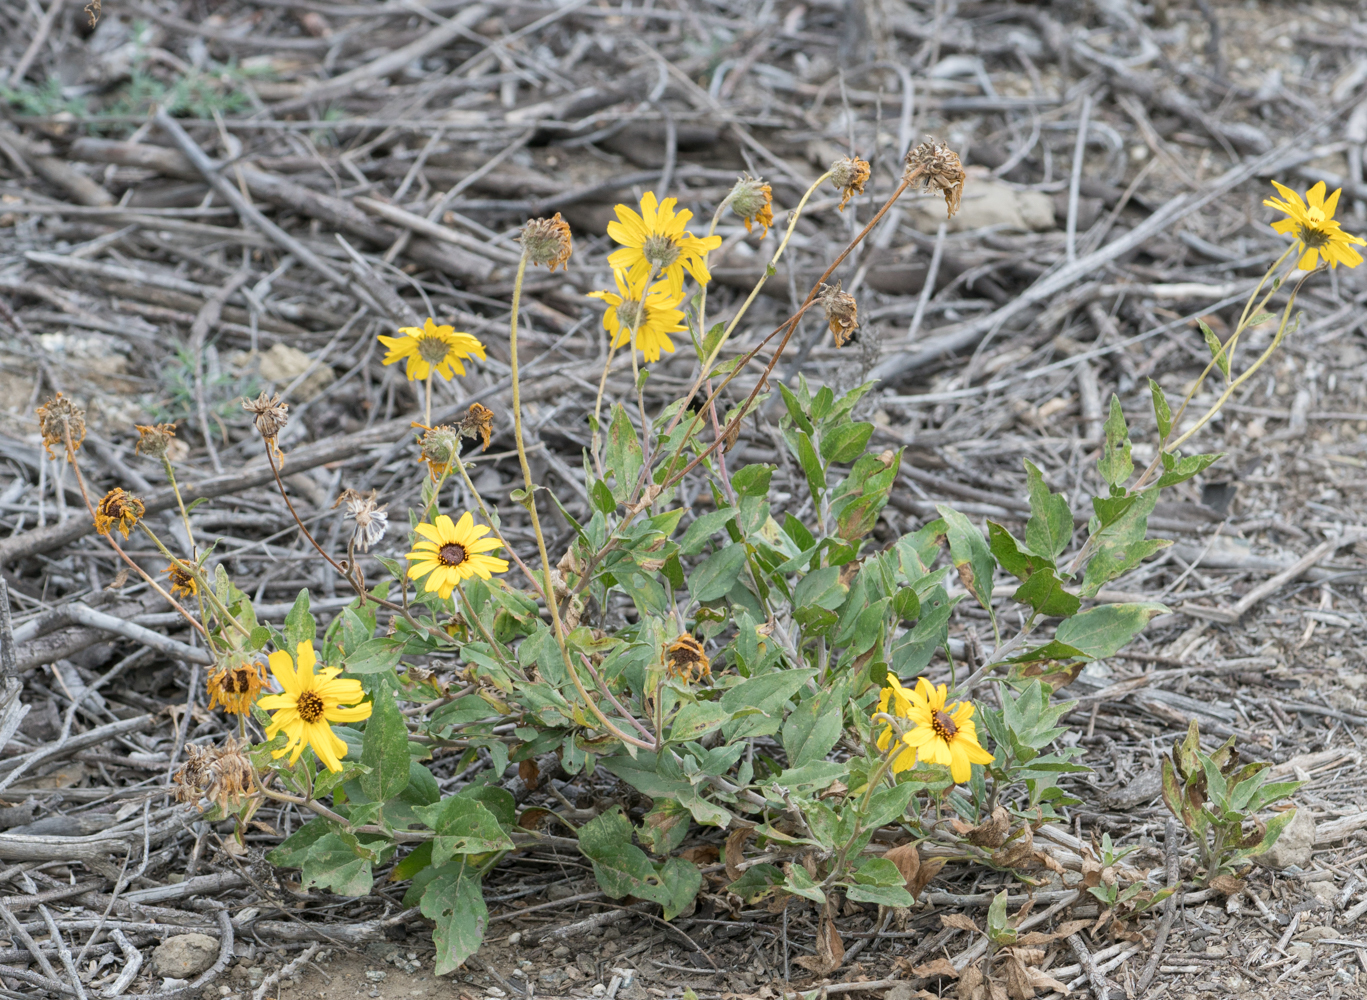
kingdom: Plantae
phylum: Tracheophyta
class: Magnoliopsida
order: Asterales
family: Asteraceae
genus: Encelia
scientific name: Encelia californica
